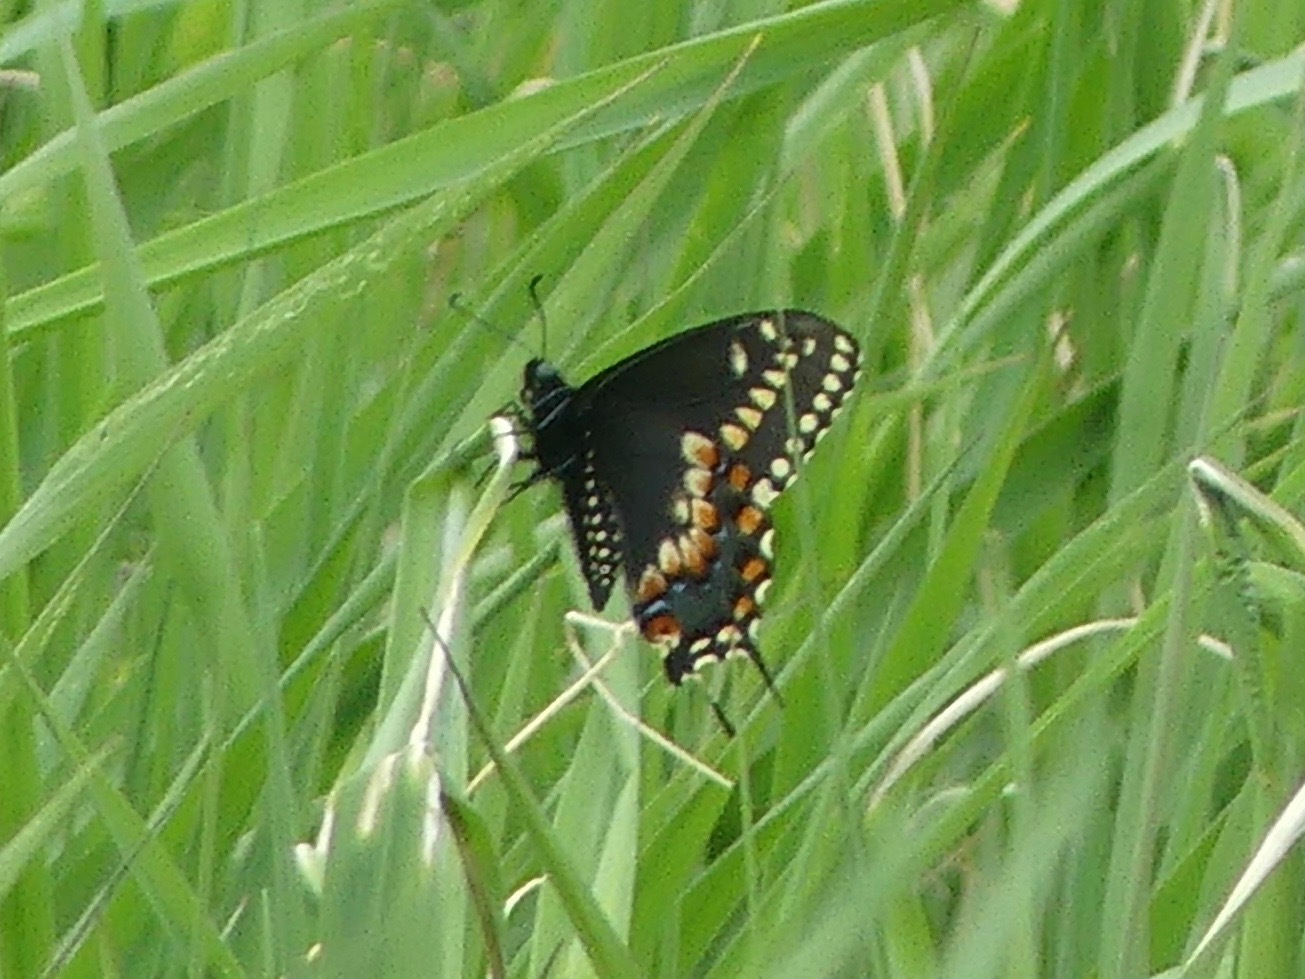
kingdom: Animalia
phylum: Arthropoda
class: Insecta
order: Lepidoptera
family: Papilionidae
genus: Papilio
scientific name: Papilio polyxenes
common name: Black swallowtail
